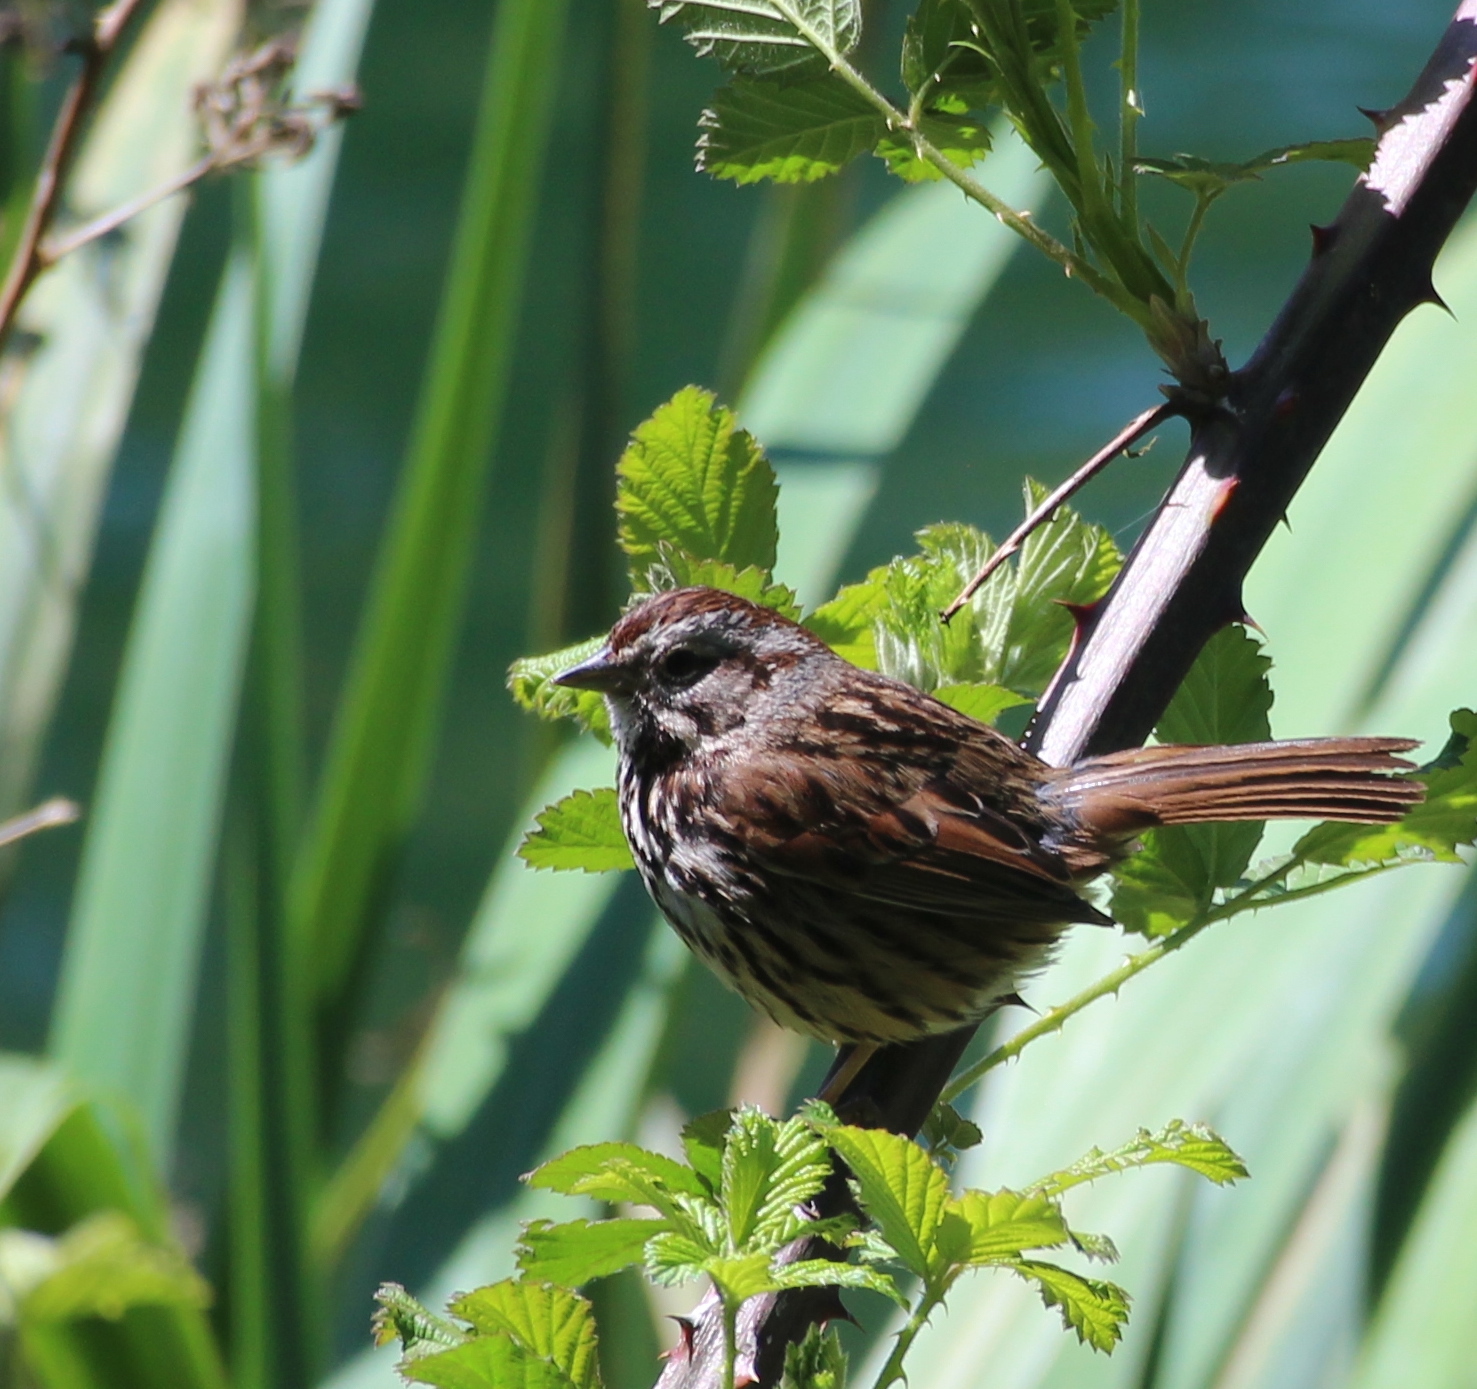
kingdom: Animalia
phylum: Chordata
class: Aves
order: Passeriformes
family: Passerellidae
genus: Melospiza
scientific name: Melospiza melodia
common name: Song sparrow
